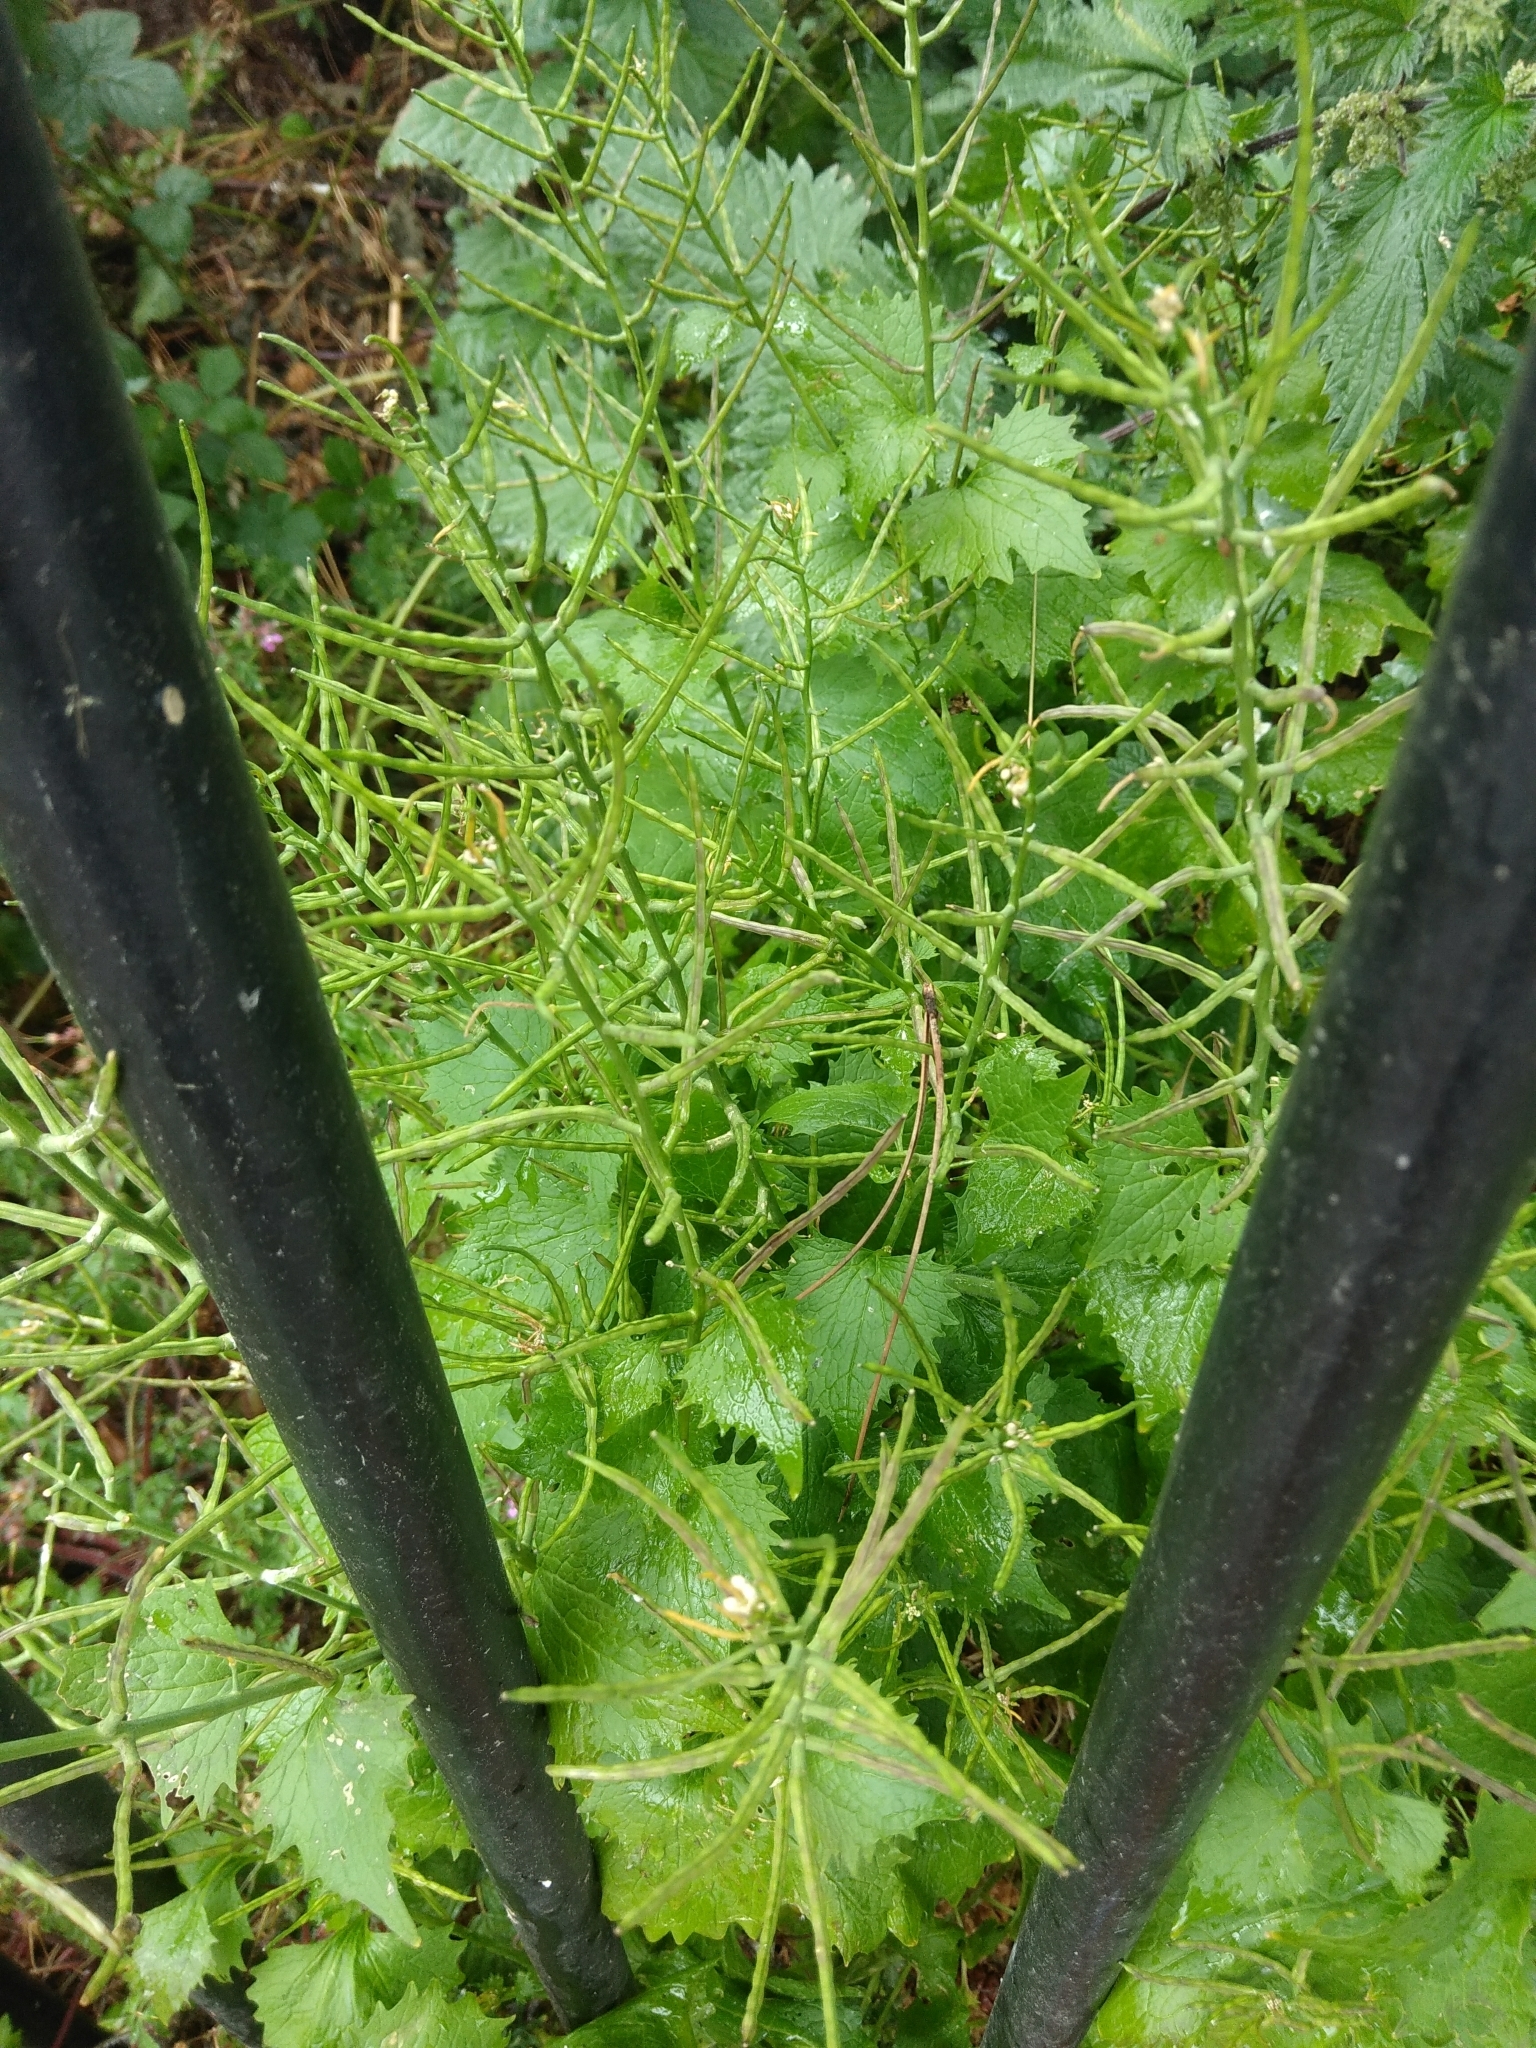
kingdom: Plantae
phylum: Tracheophyta
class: Magnoliopsida
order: Brassicales
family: Brassicaceae
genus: Alliaria
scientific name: Alliaria petiolata
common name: Garlic mustard
